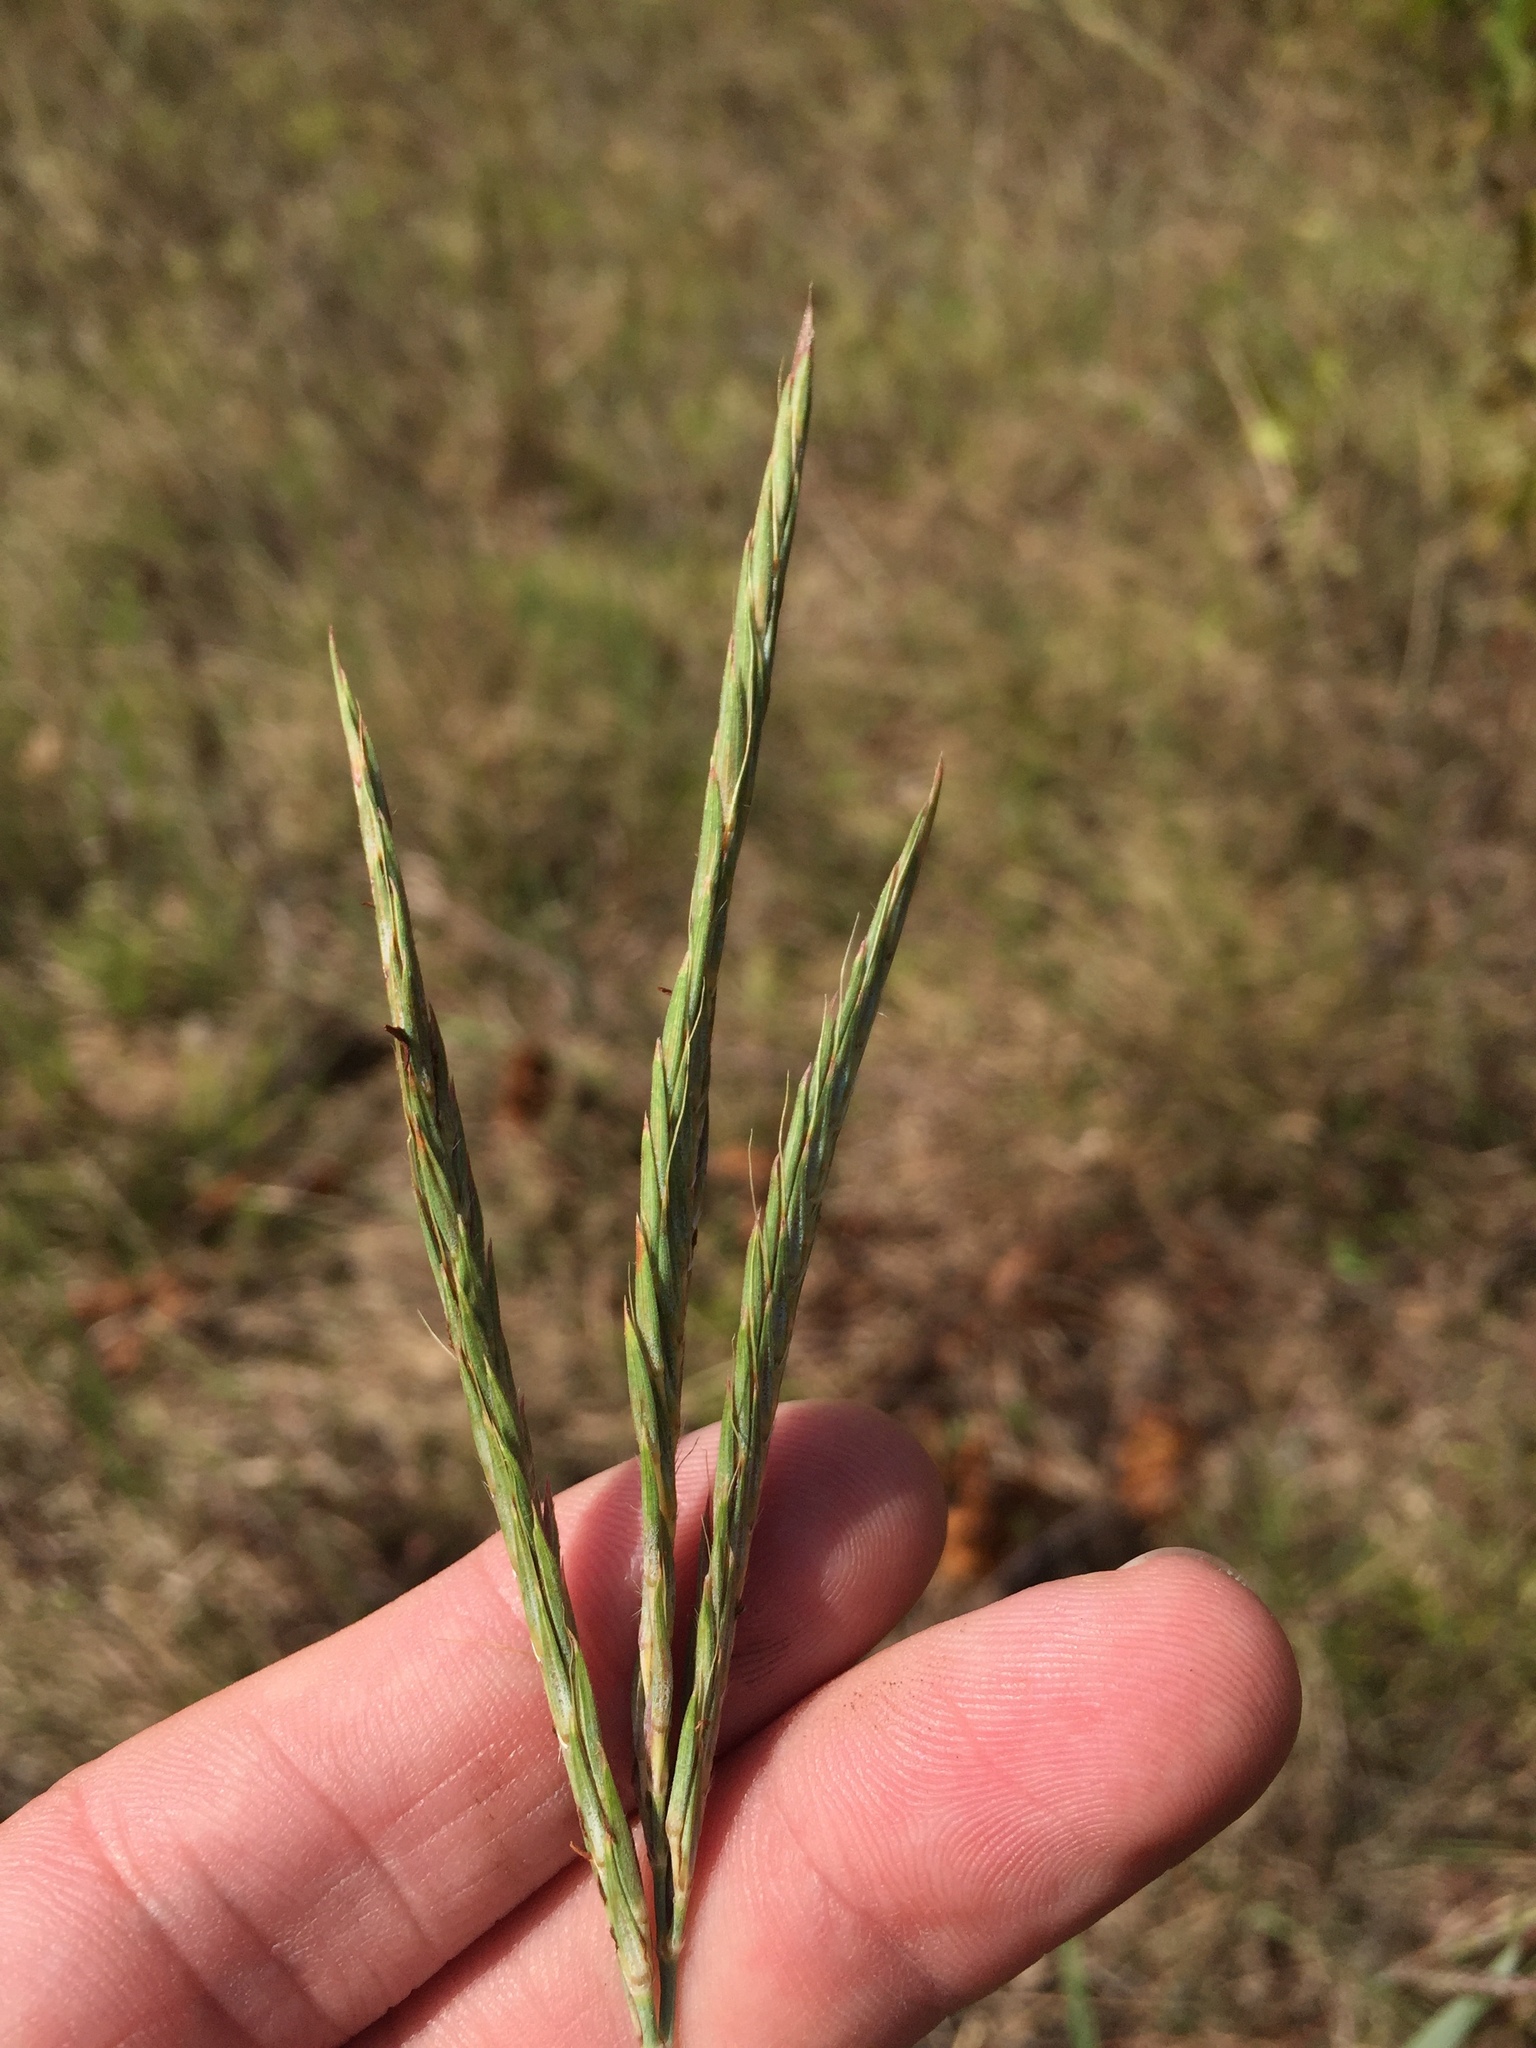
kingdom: Plantae
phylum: Tracheophyta
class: Liliopsida
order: Poales
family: Poaceae
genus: Andropogon
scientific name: Andropogon gerardi
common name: Big bluestem
